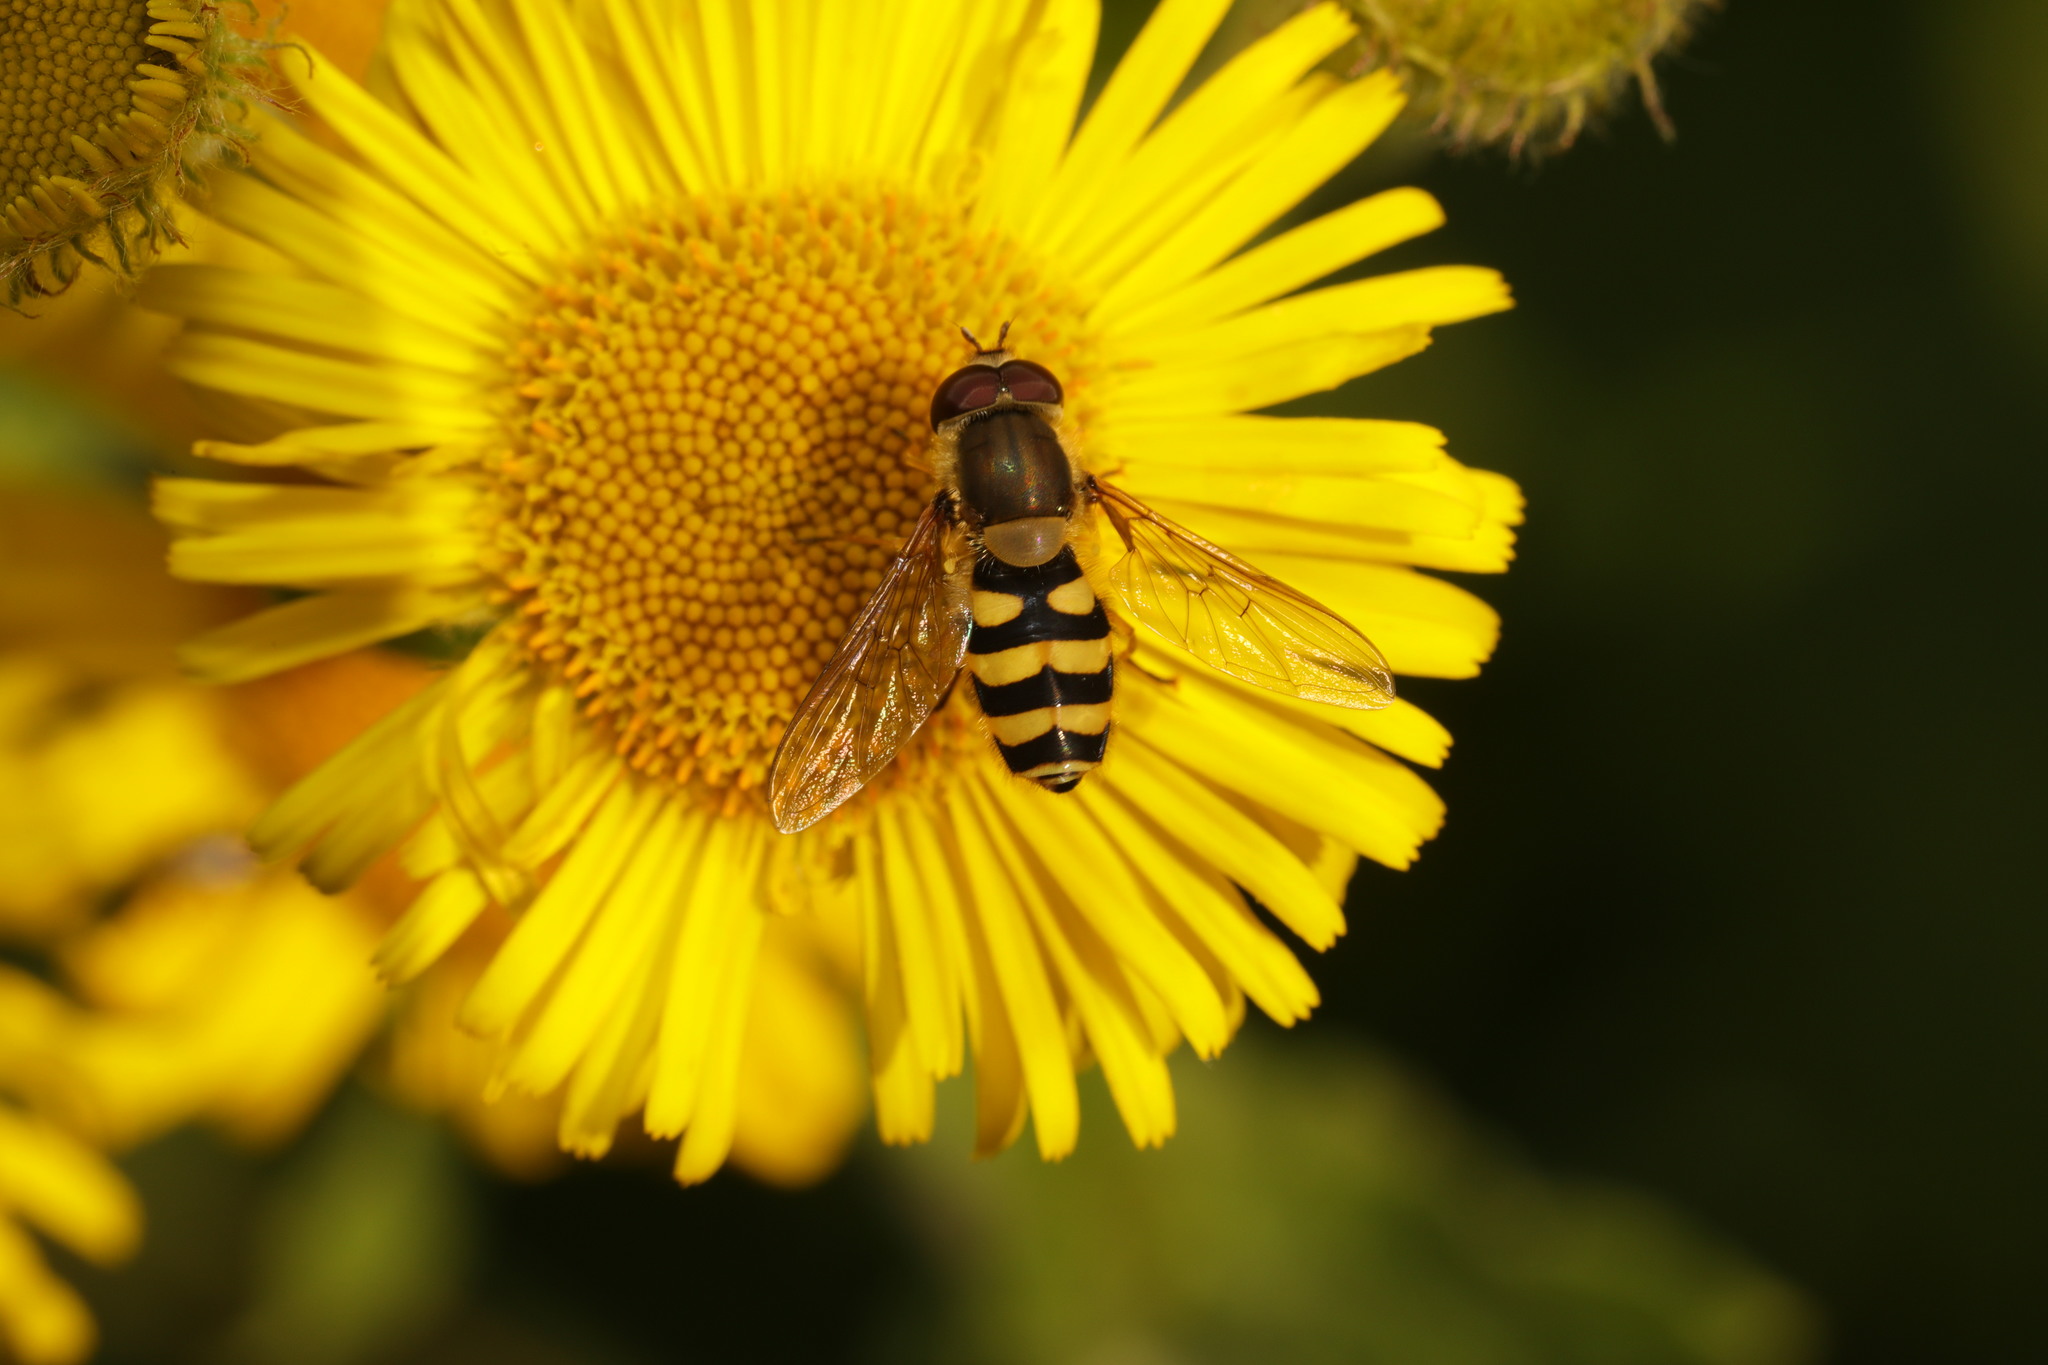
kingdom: Animalia
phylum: Arthropoda
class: Insecta
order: Diptera
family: Syrphidae
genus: Syrphus
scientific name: Syrphus
